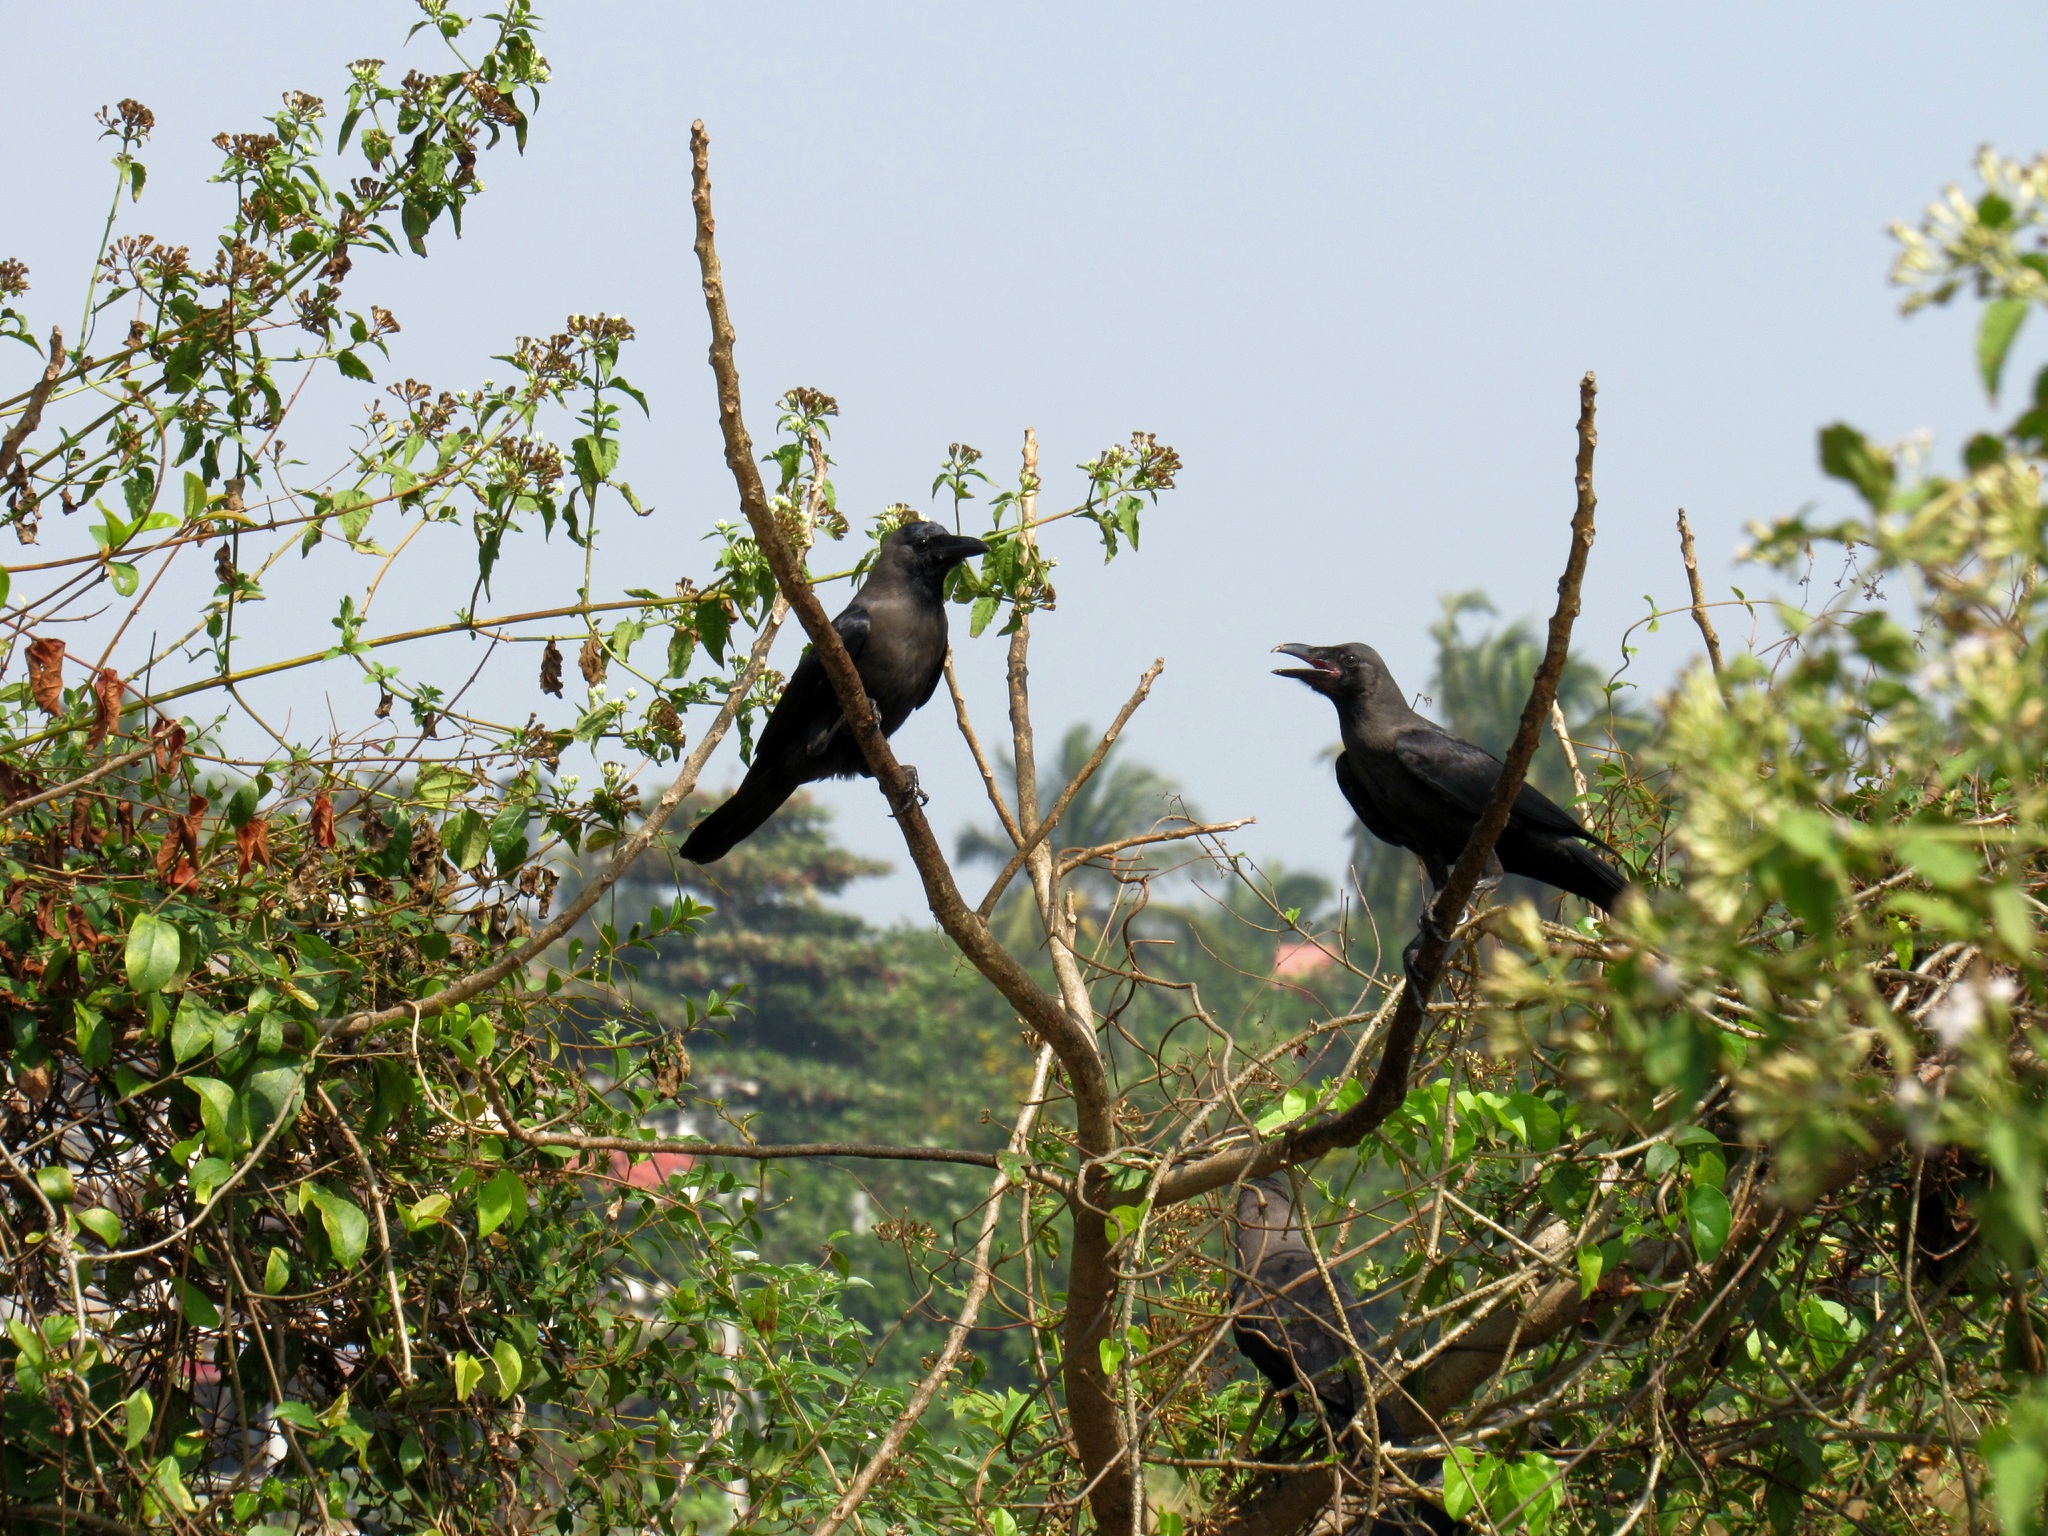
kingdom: Animalia
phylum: Chordata
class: Aves
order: Passeriformes
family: Corvidae
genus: Corvus
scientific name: Corvus splendens
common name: House crow
